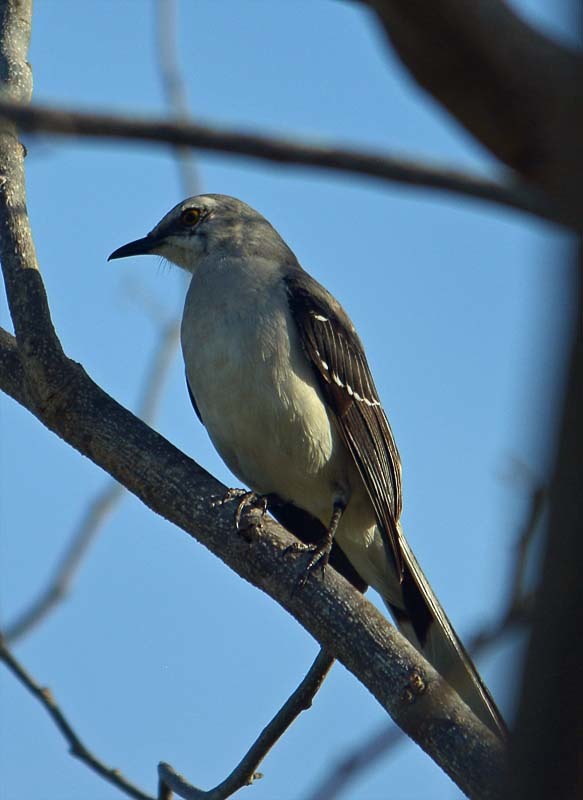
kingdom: Animalia
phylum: Chordata
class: Aves
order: Passeriformes
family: Mimidae
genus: Mimus
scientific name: Mimus gilvus
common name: Tropical mockingbird
